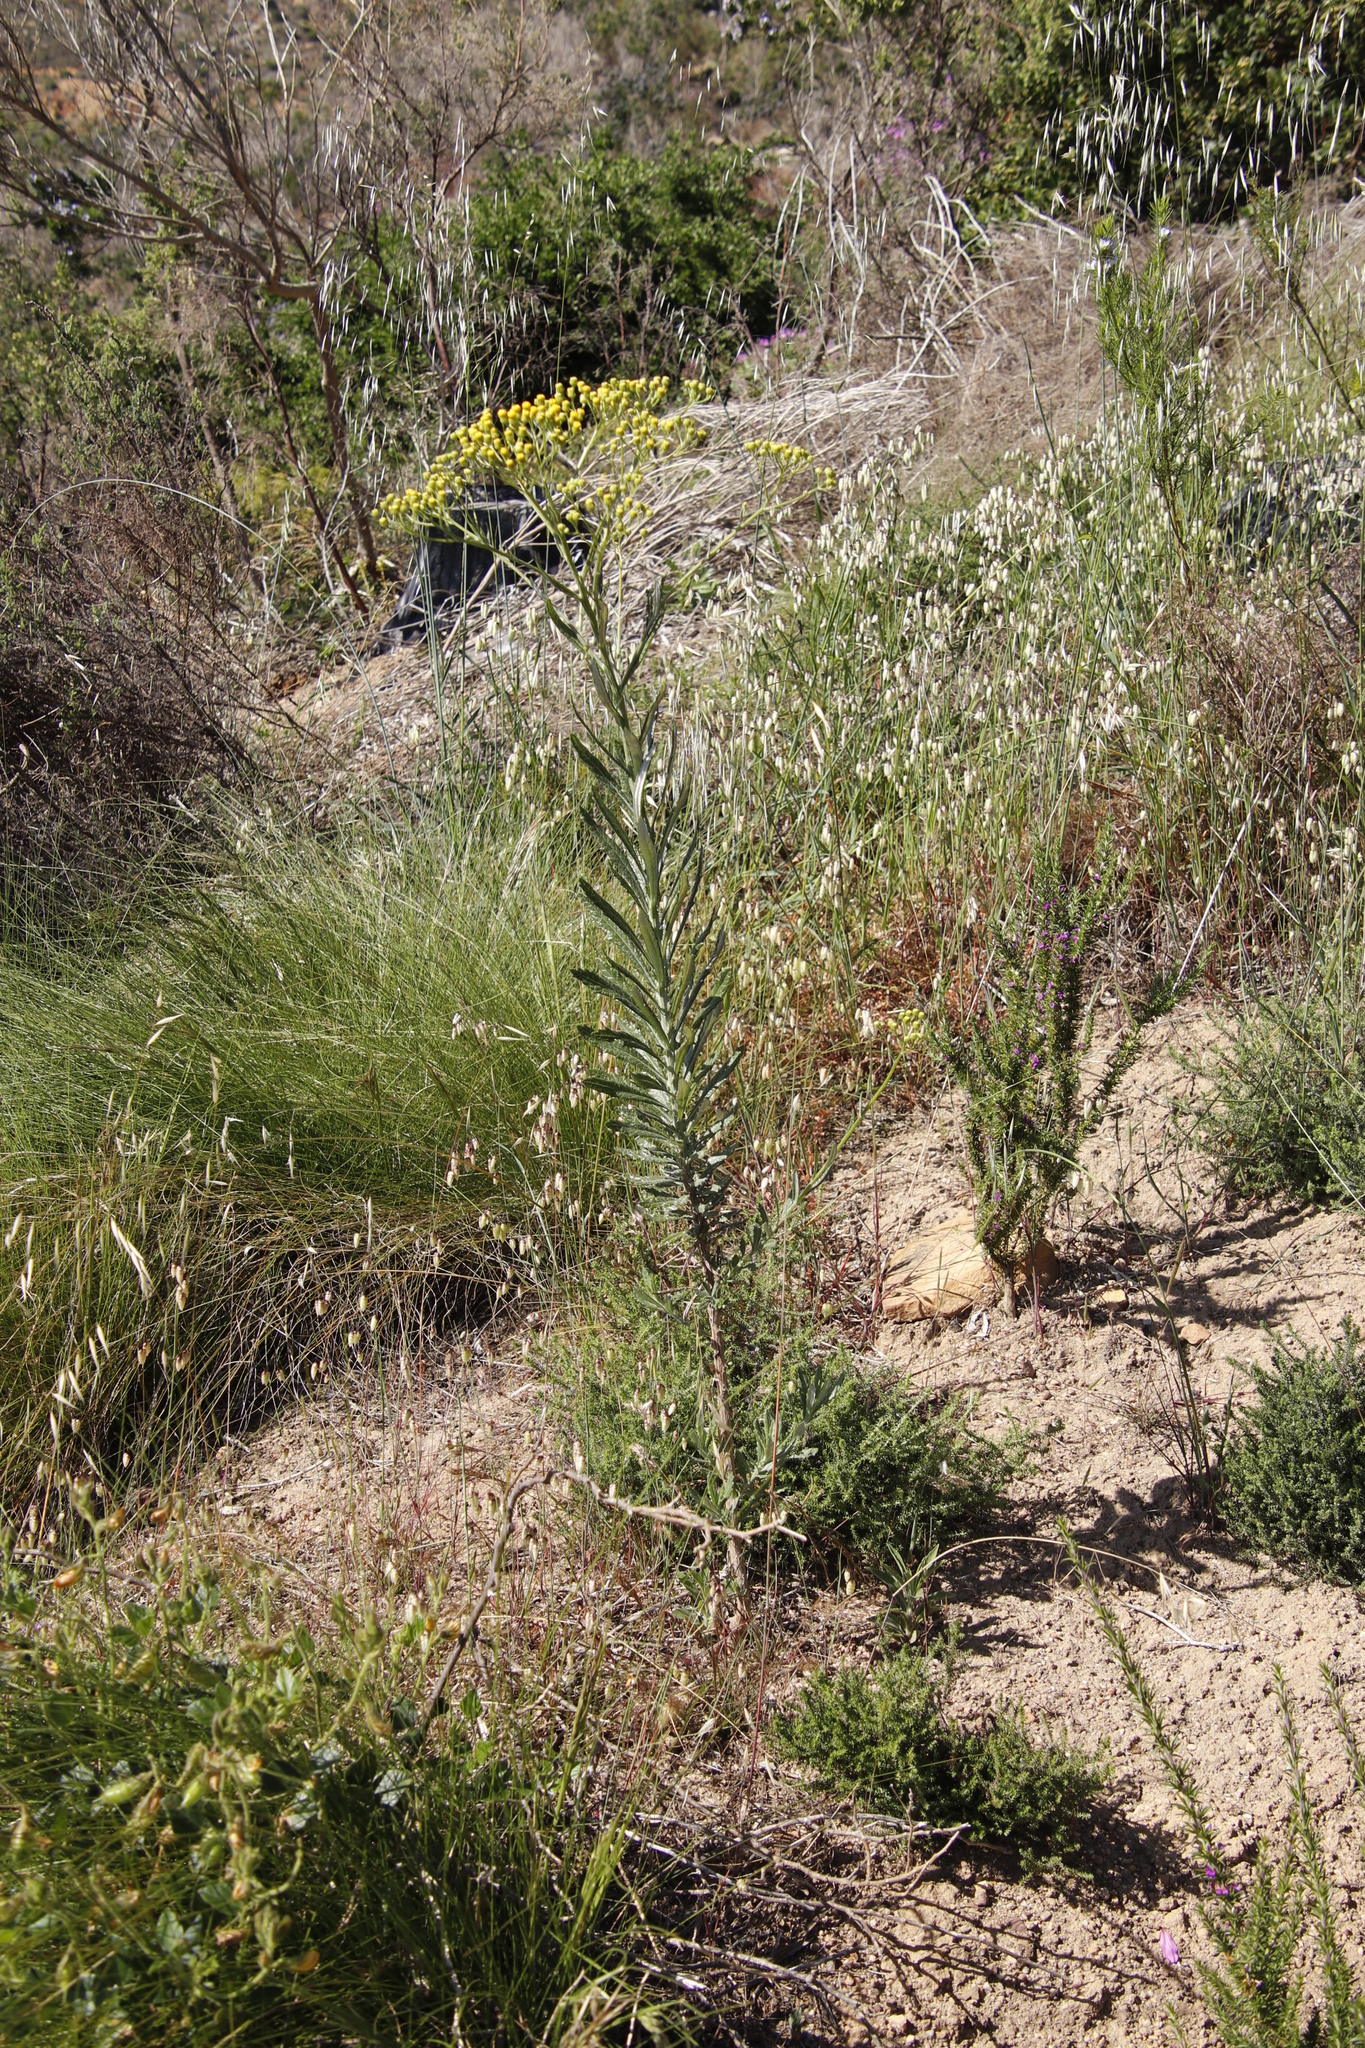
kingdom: Plantae
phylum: Tracheophyta
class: Magnoliopsida
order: Asterales
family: Asteraceae
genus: Senecio
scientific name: Senecio pterophorus
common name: Shoddy ragwort
